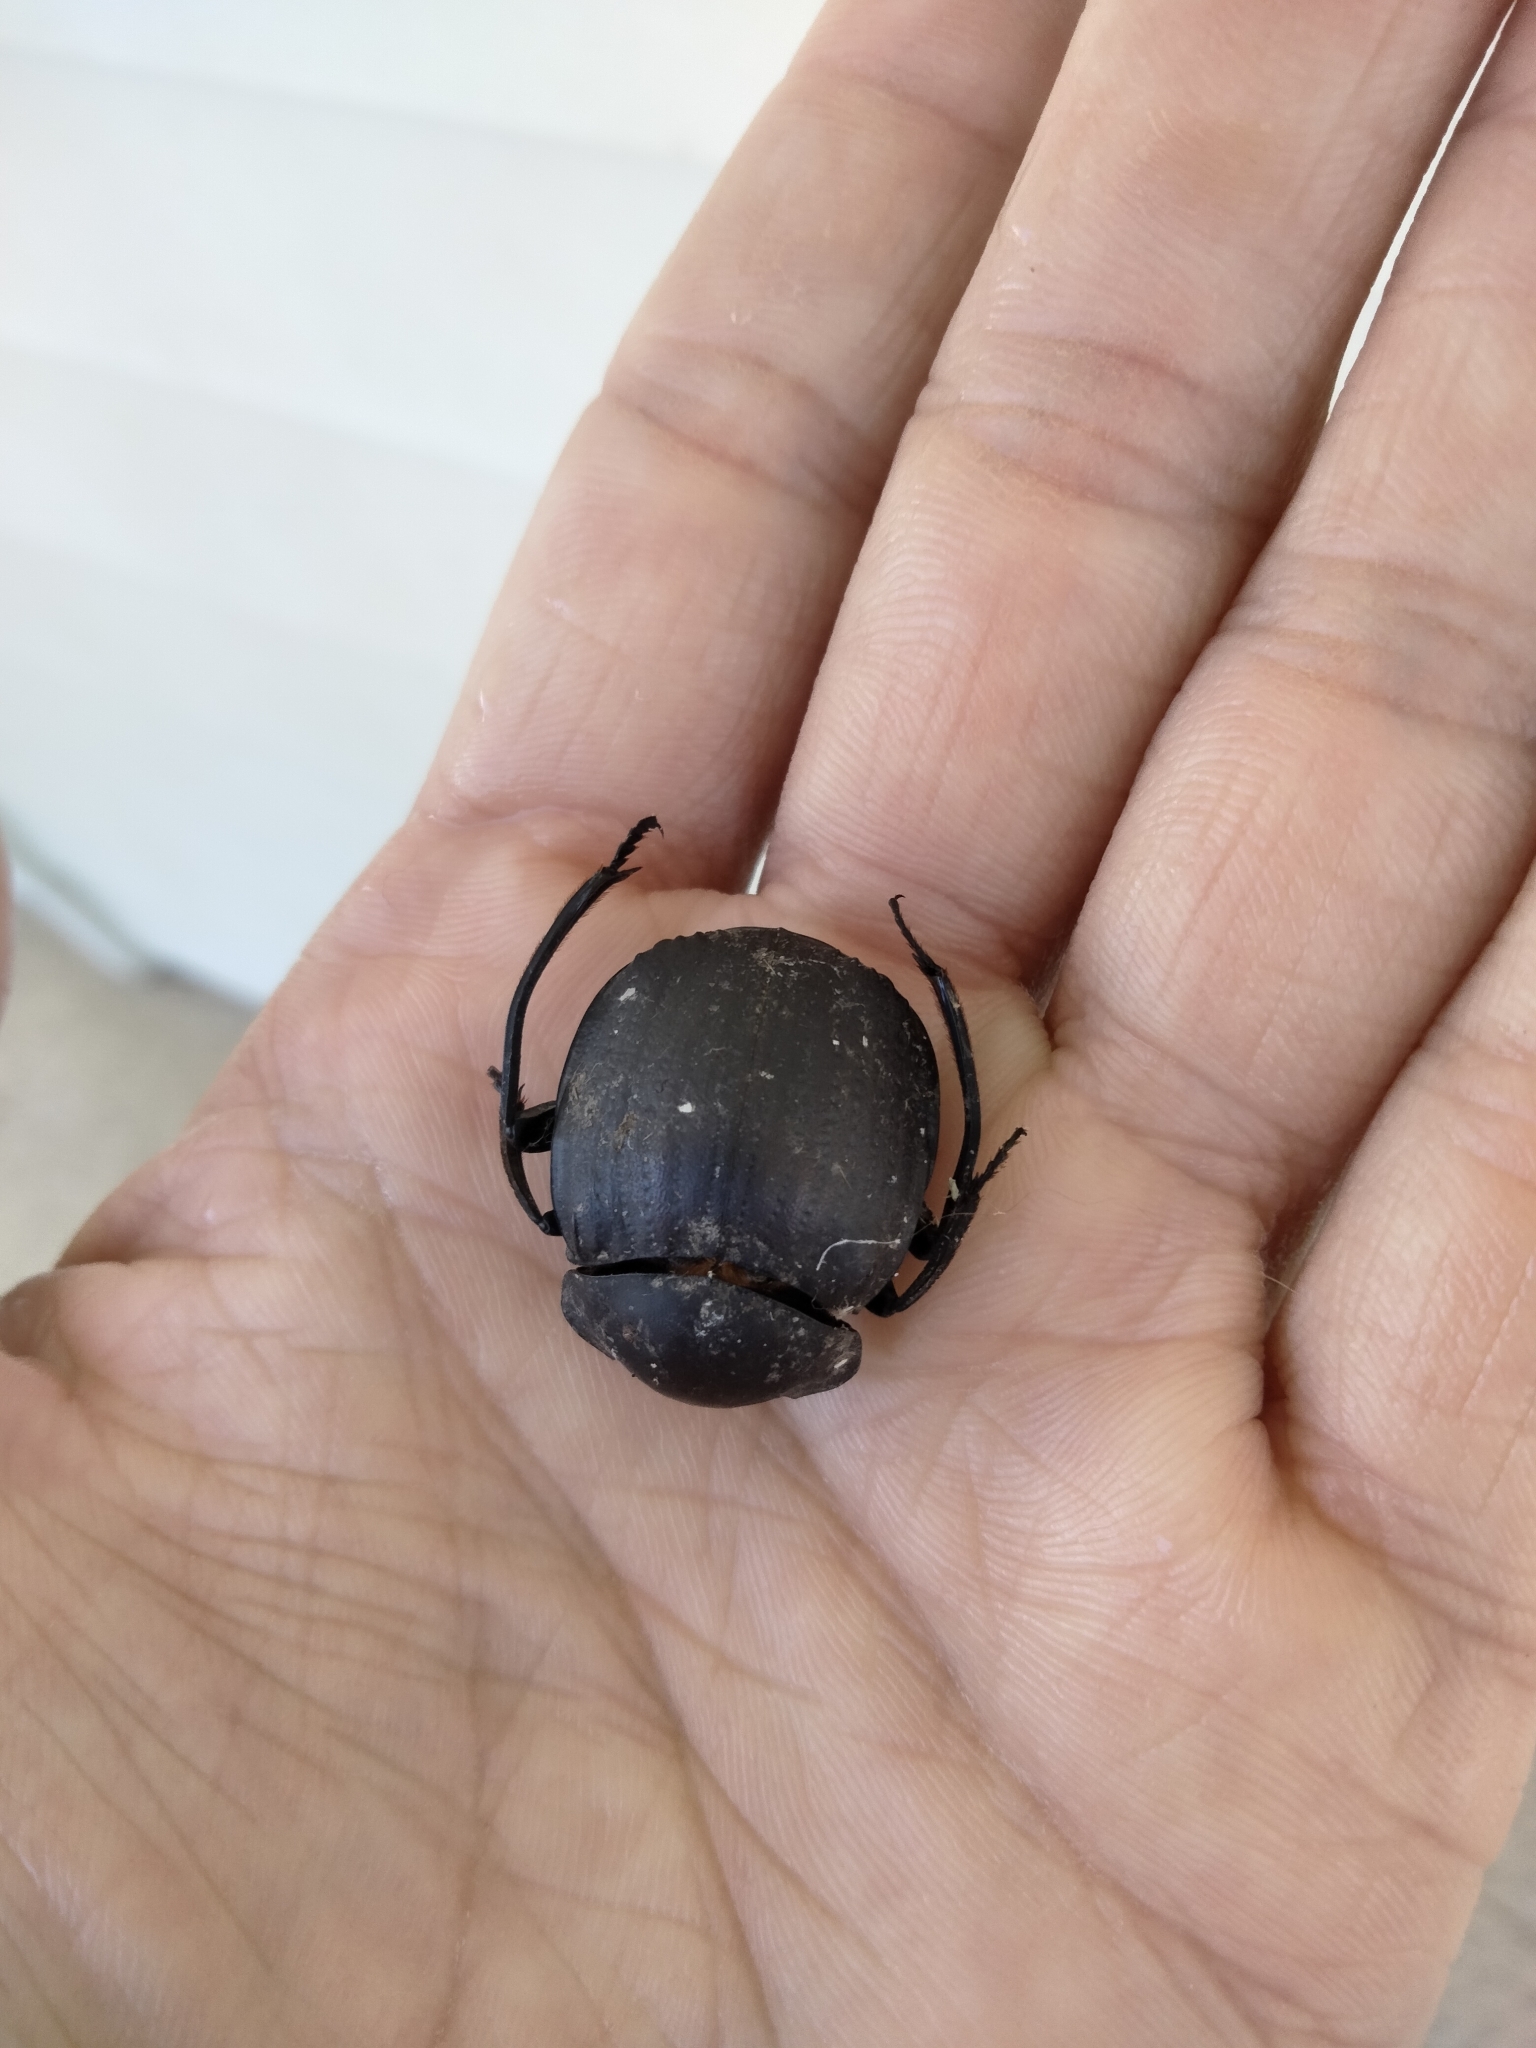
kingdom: Animalia
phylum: Arthropoda
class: Insecta
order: Coleoptera
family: Scarabaeidae
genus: Deltochilum
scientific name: Deltochilum gibbosum
